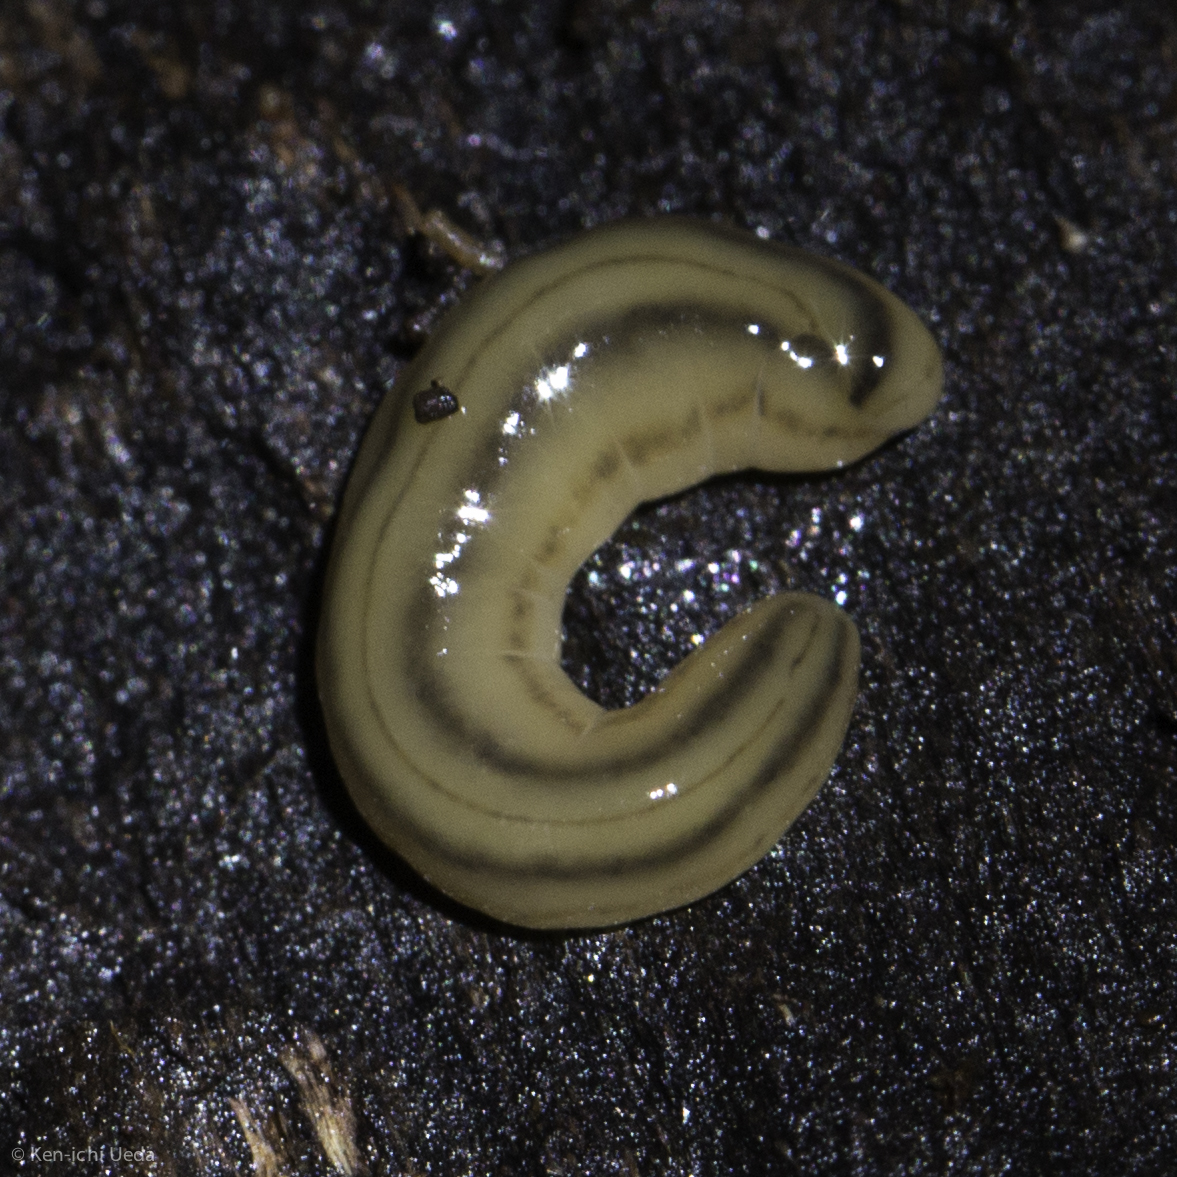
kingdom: Animalia
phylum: Platyhelminthes
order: Tricladida
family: Geoplanidae
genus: Bipalium
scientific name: Bipalium kewense
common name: Hammerhead flatworm
